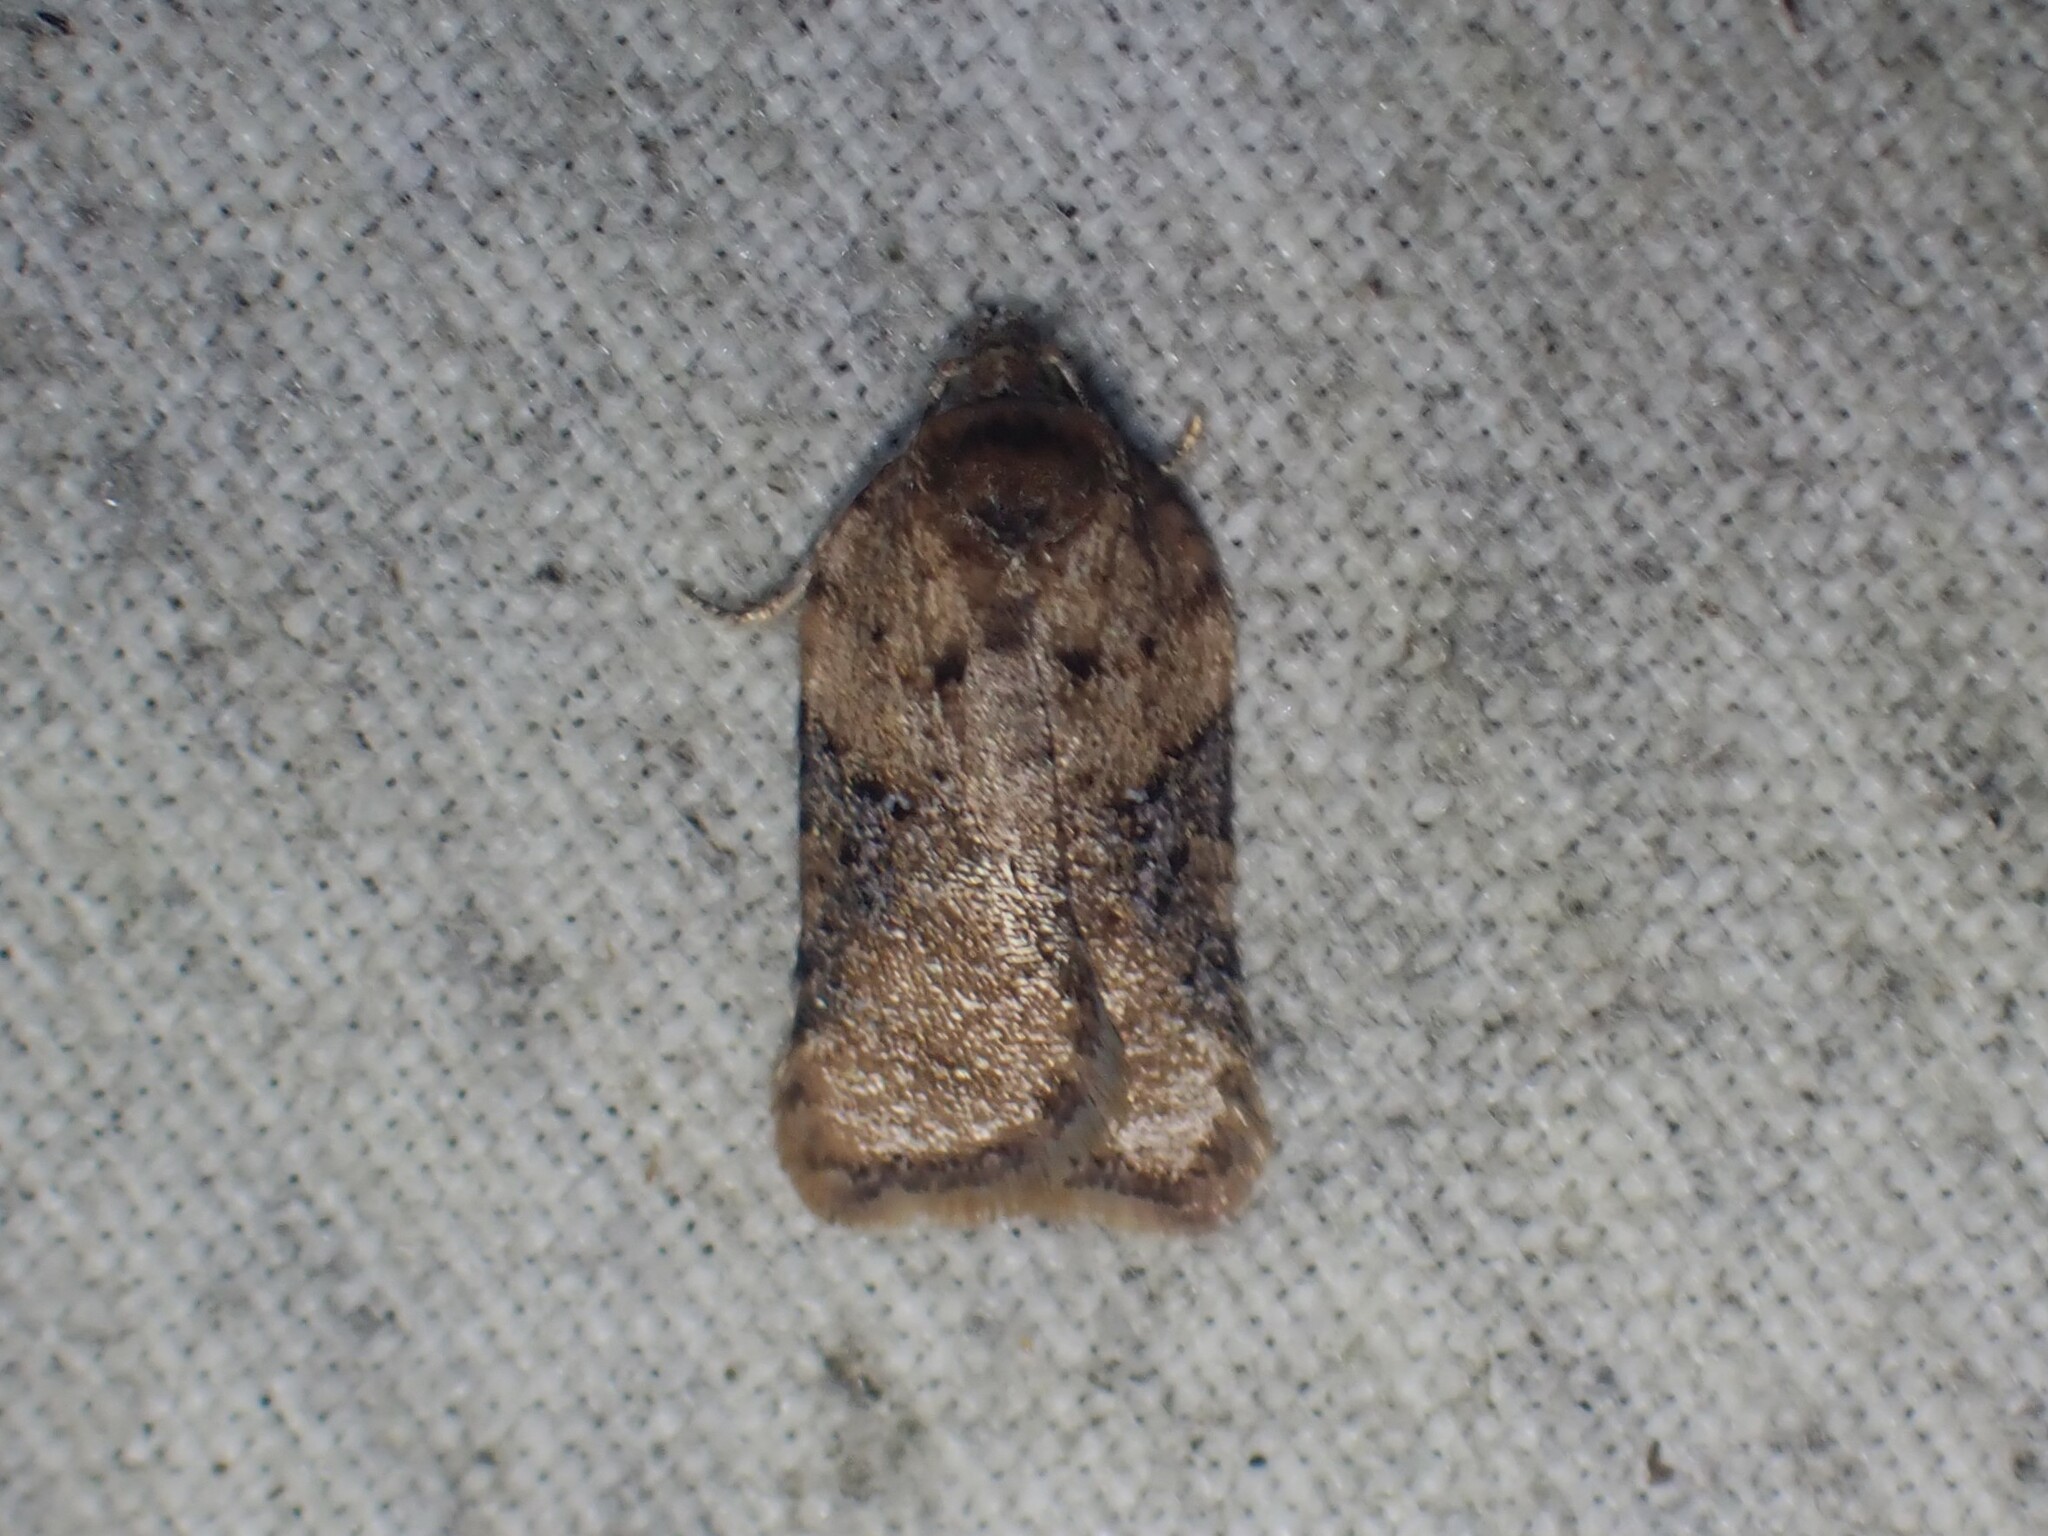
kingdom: Animalia
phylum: Arthropoda
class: Insecta
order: Lepidoptera
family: Tortricidae
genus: Acleris
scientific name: Acleris braunana
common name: Alder leafroller
